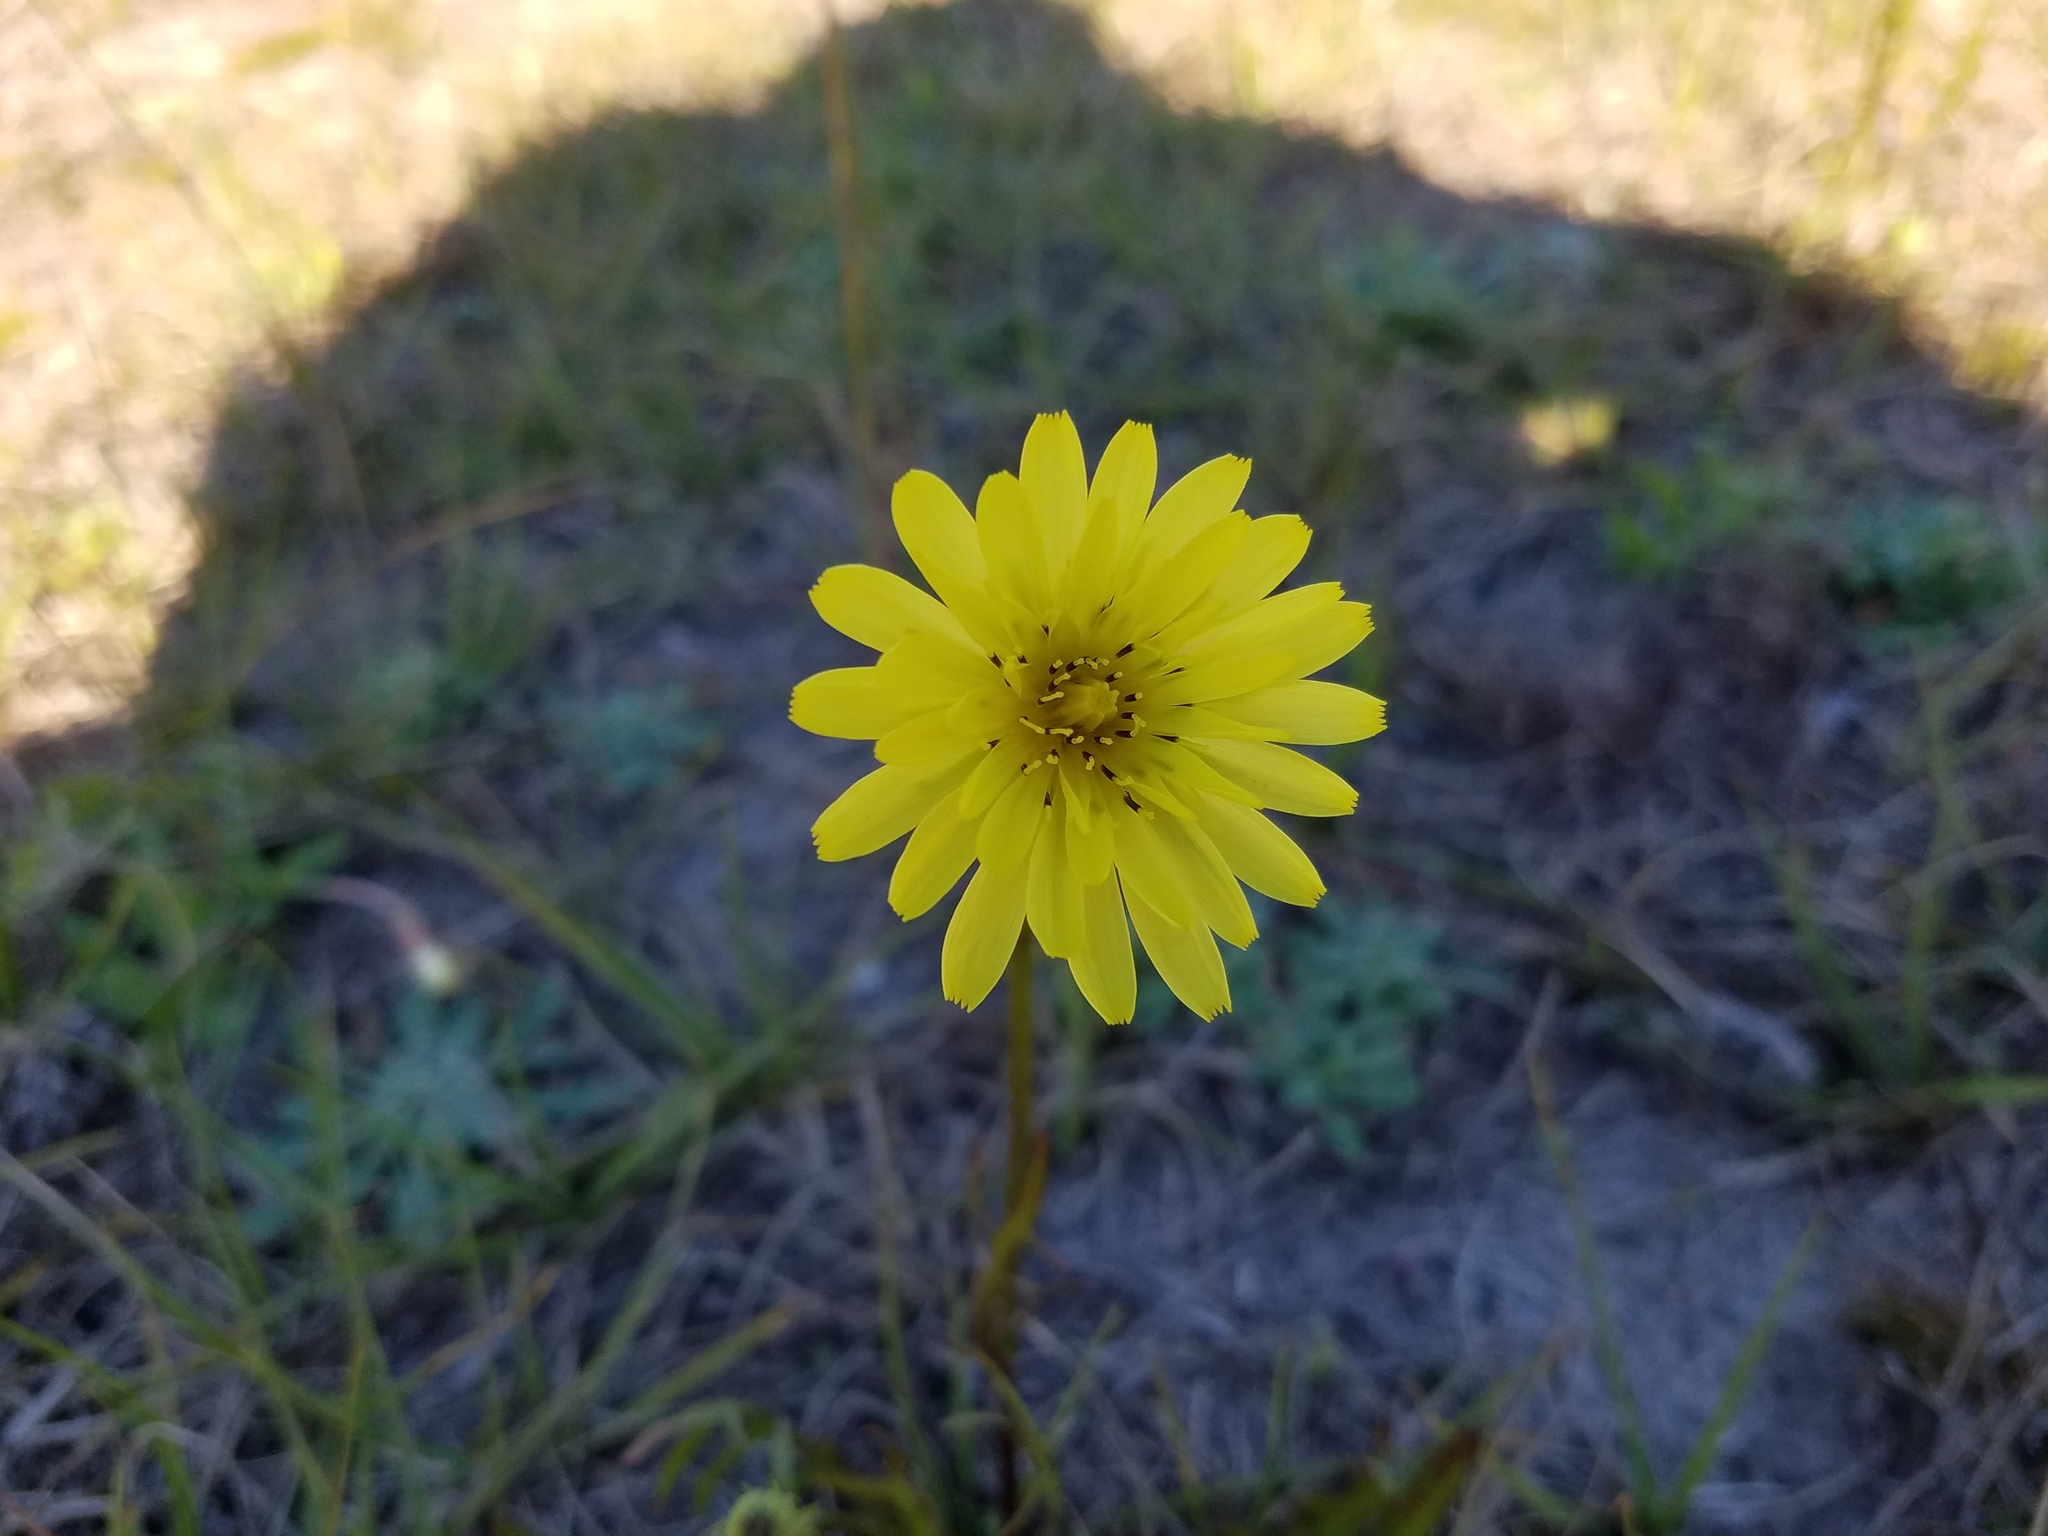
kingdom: Plantae
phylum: Tracheophyta
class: Magnoliopsida
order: Asterales
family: Asteraceae
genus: Pyrrhopappus
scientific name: Pyrrhopappus carolinianus
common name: Carolina desert-chicory
